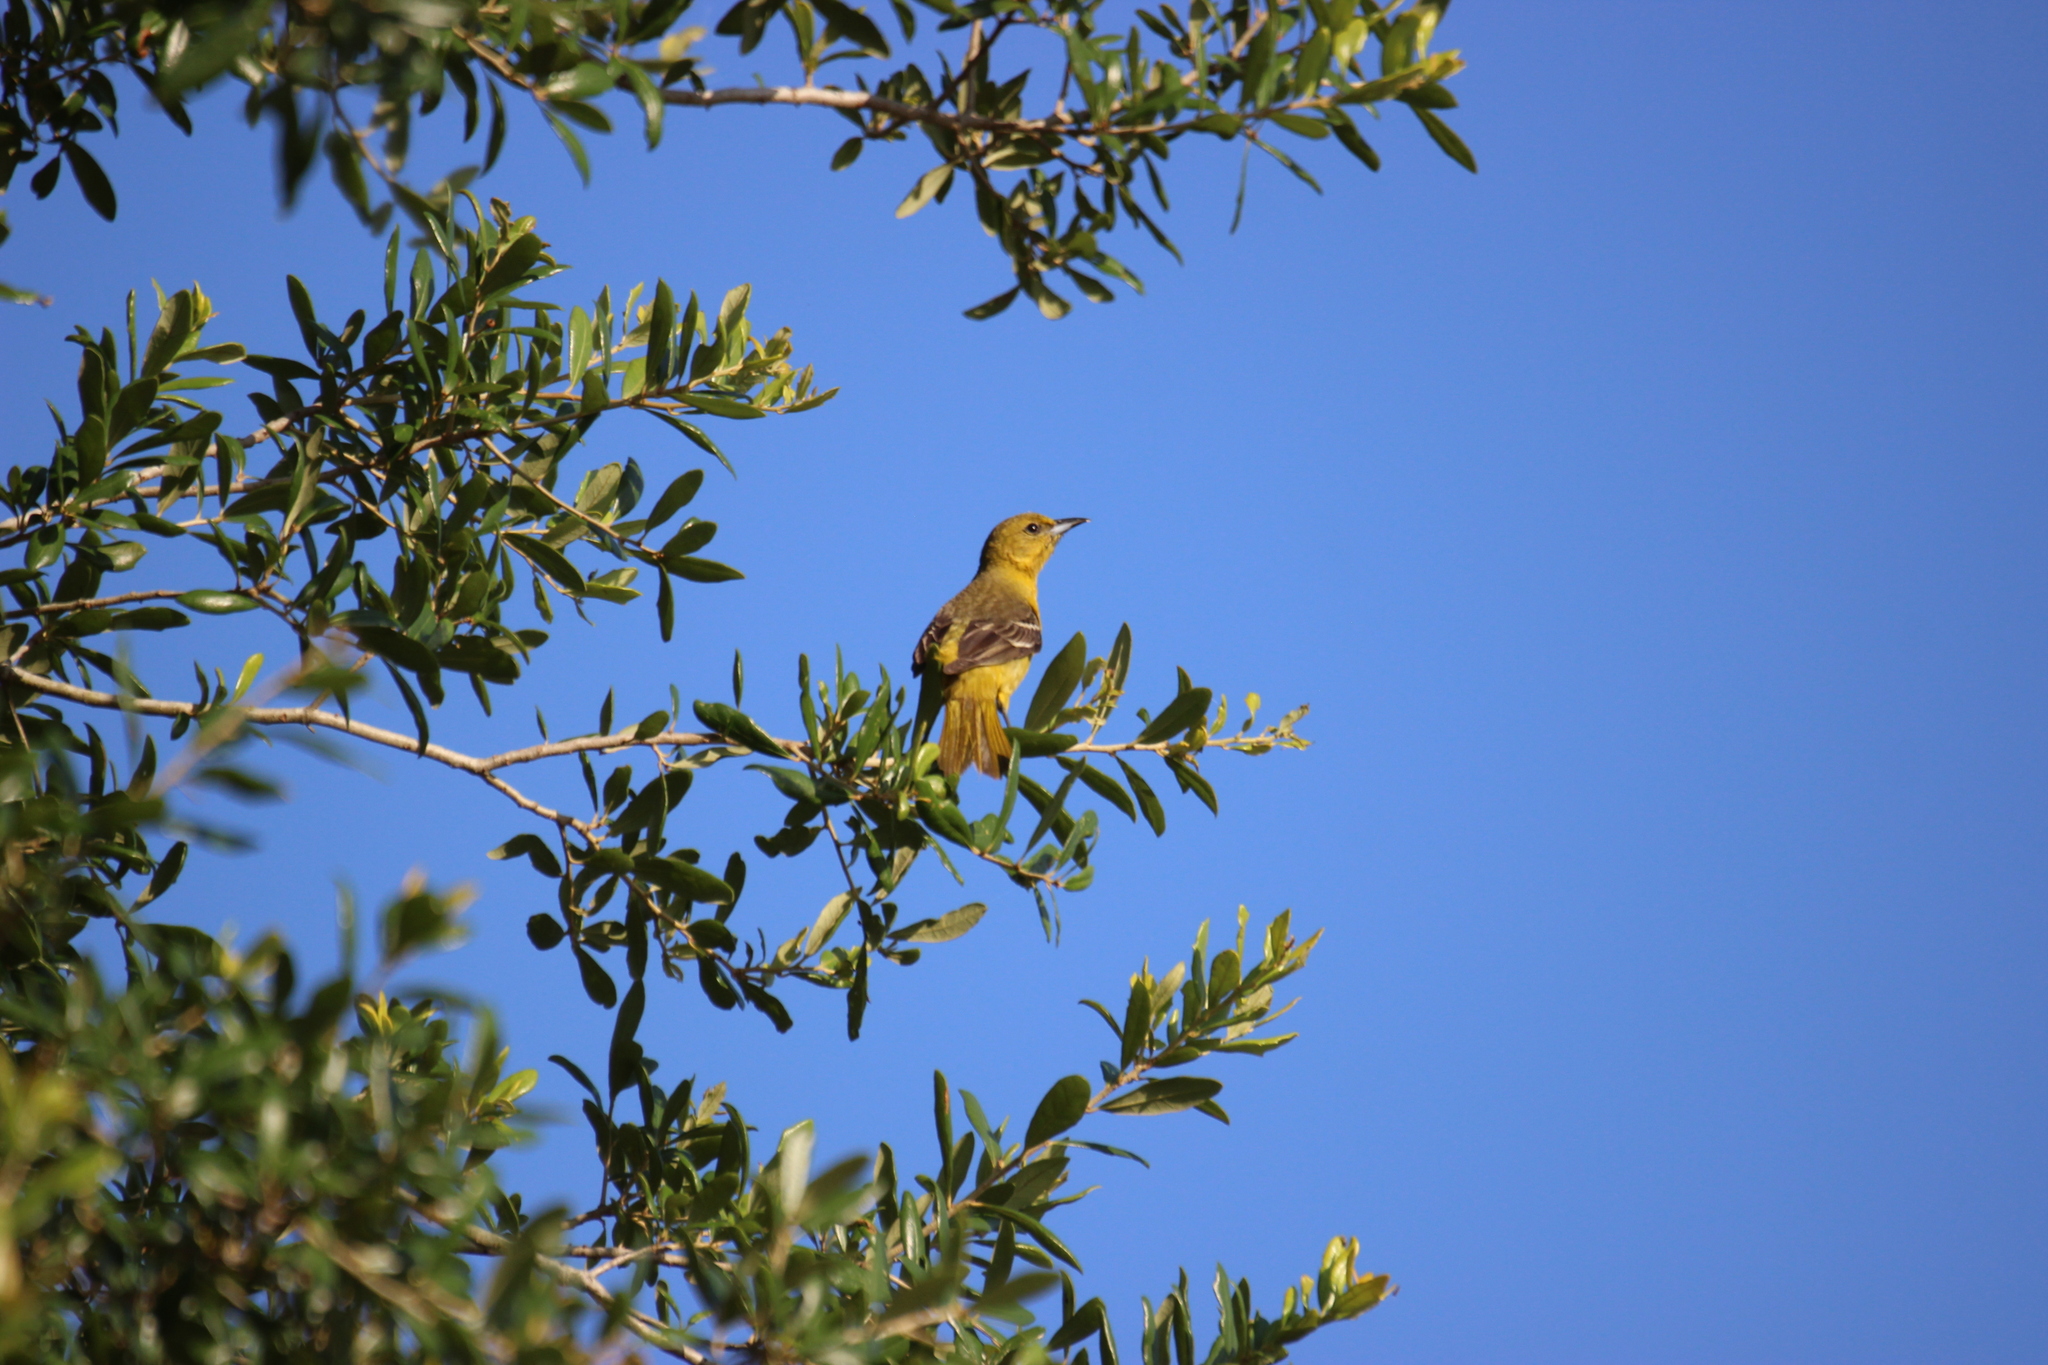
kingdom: Animalia
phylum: Chordata
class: Aves
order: Passeriformes
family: Icteridae
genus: Icterus
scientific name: Icterus spurius
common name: Orchard oriole
